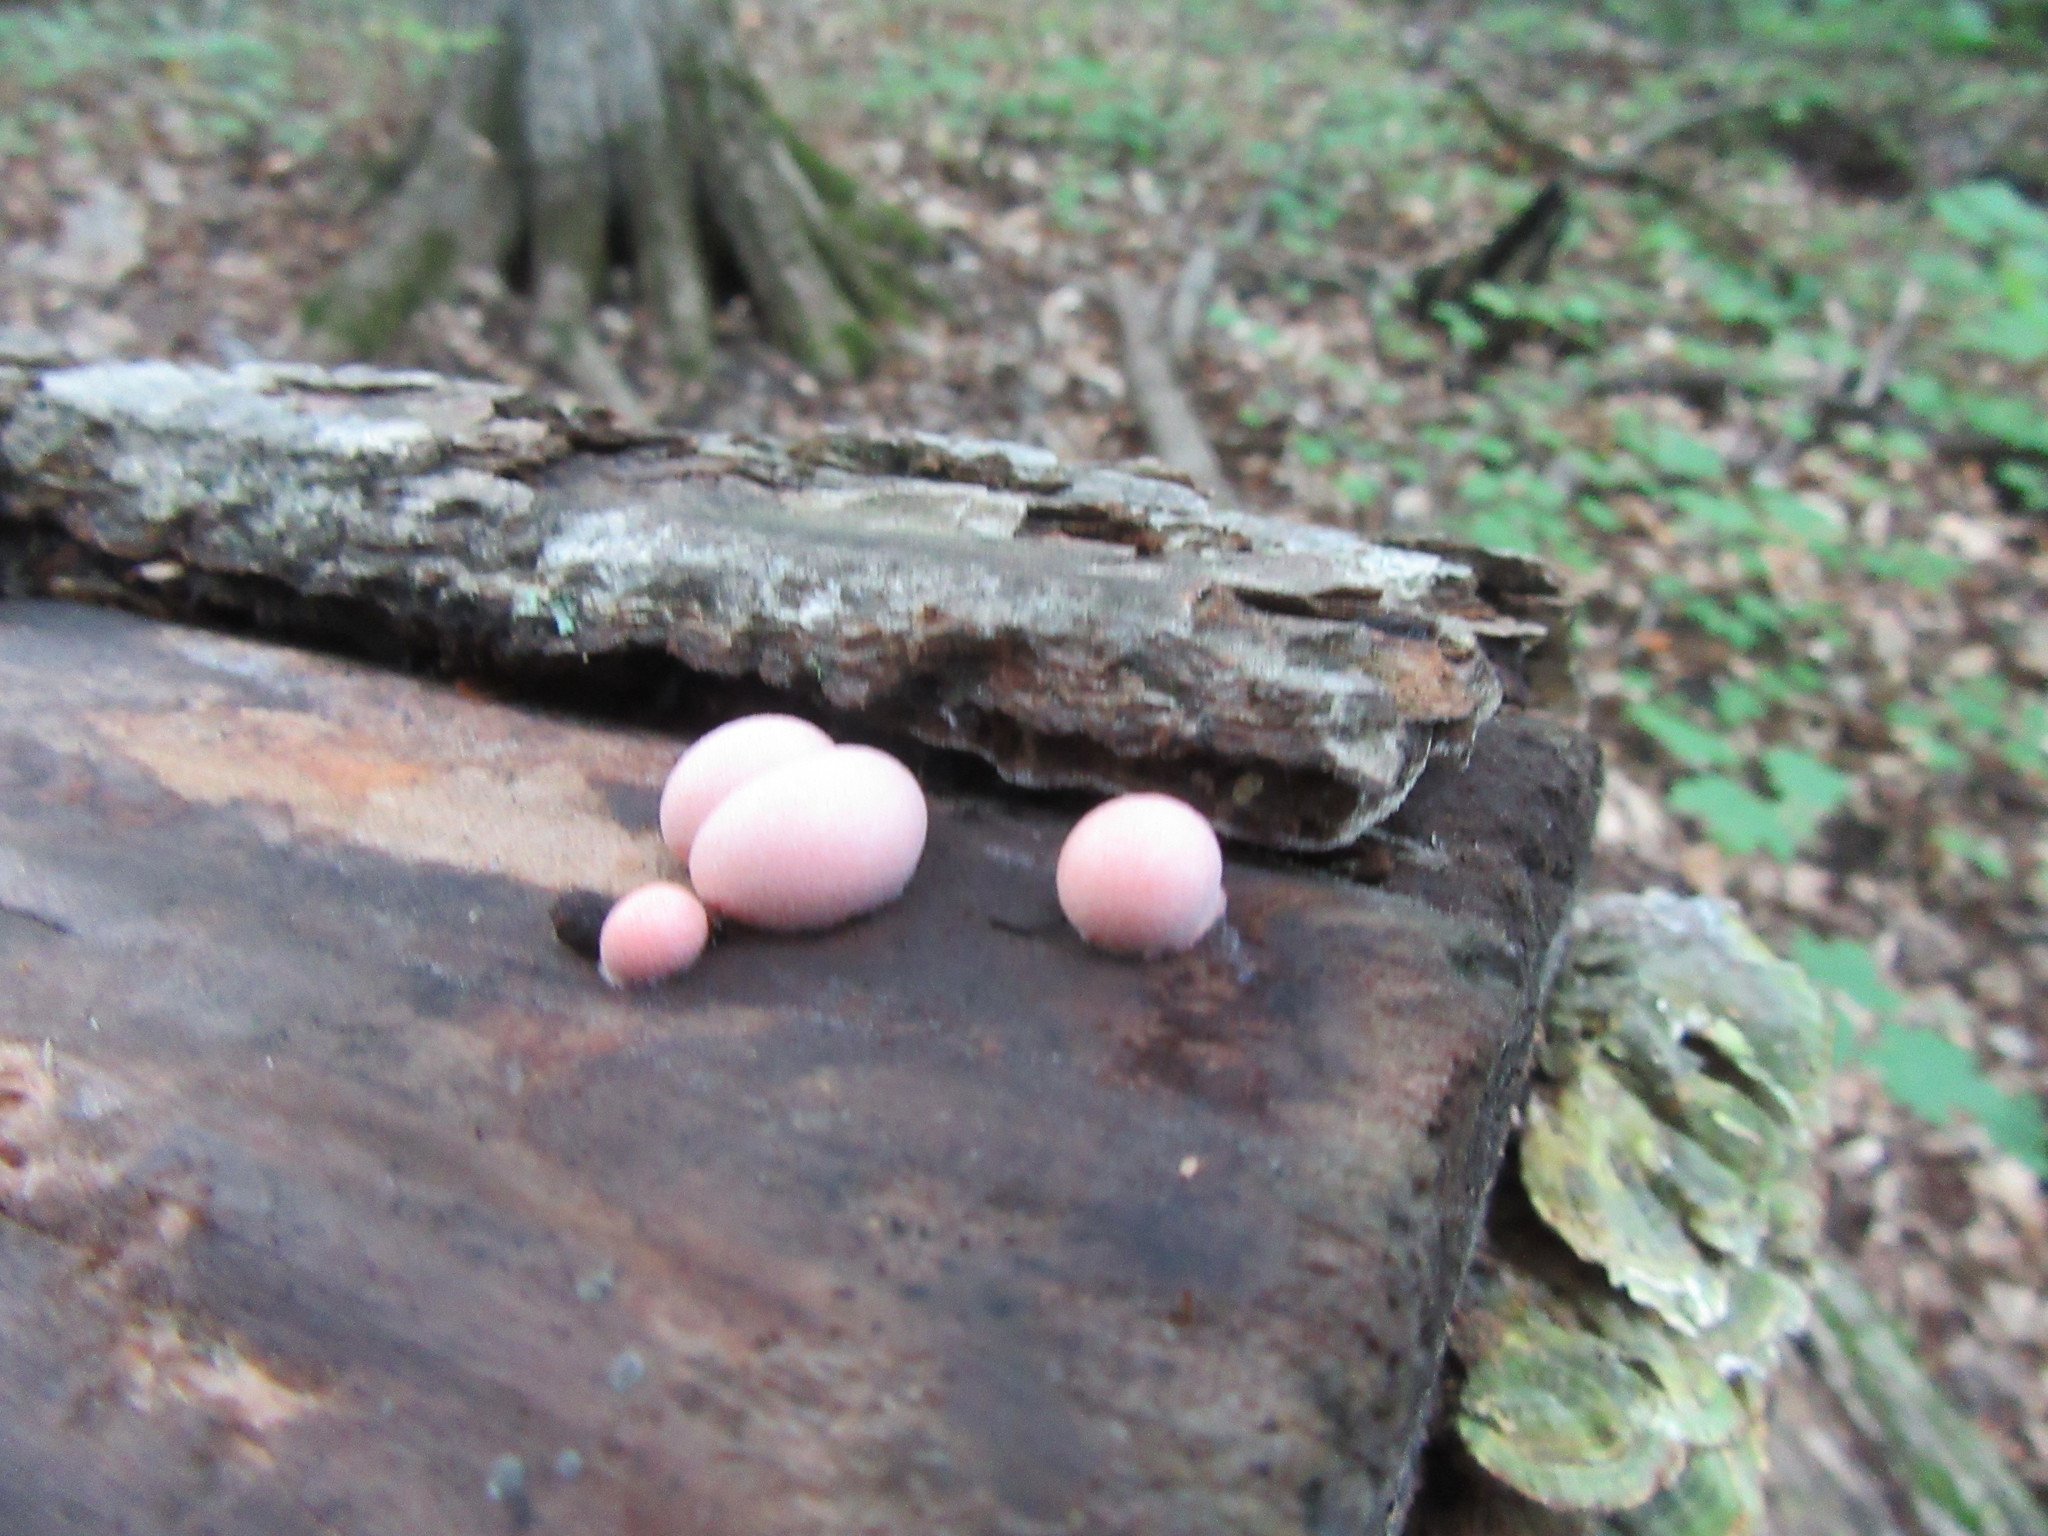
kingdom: Protozoa
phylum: Mycetozoa
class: Myxomycetes
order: Cribrariales
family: Tubiferaceae
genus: Lycogala
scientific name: Lycogala epidendrum
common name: Wolf's milk
